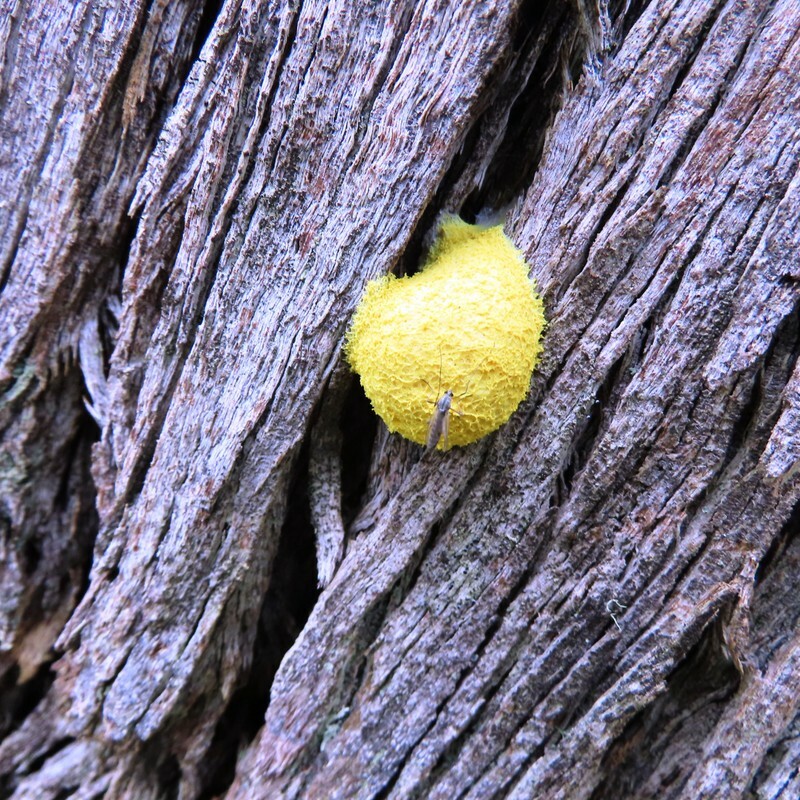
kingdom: Protozoa
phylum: Mycetozoa
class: Myxomycetes
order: Physarales
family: Physaraceae
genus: Fuligo
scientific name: Fuligo septica
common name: Dog vomit slime mold
